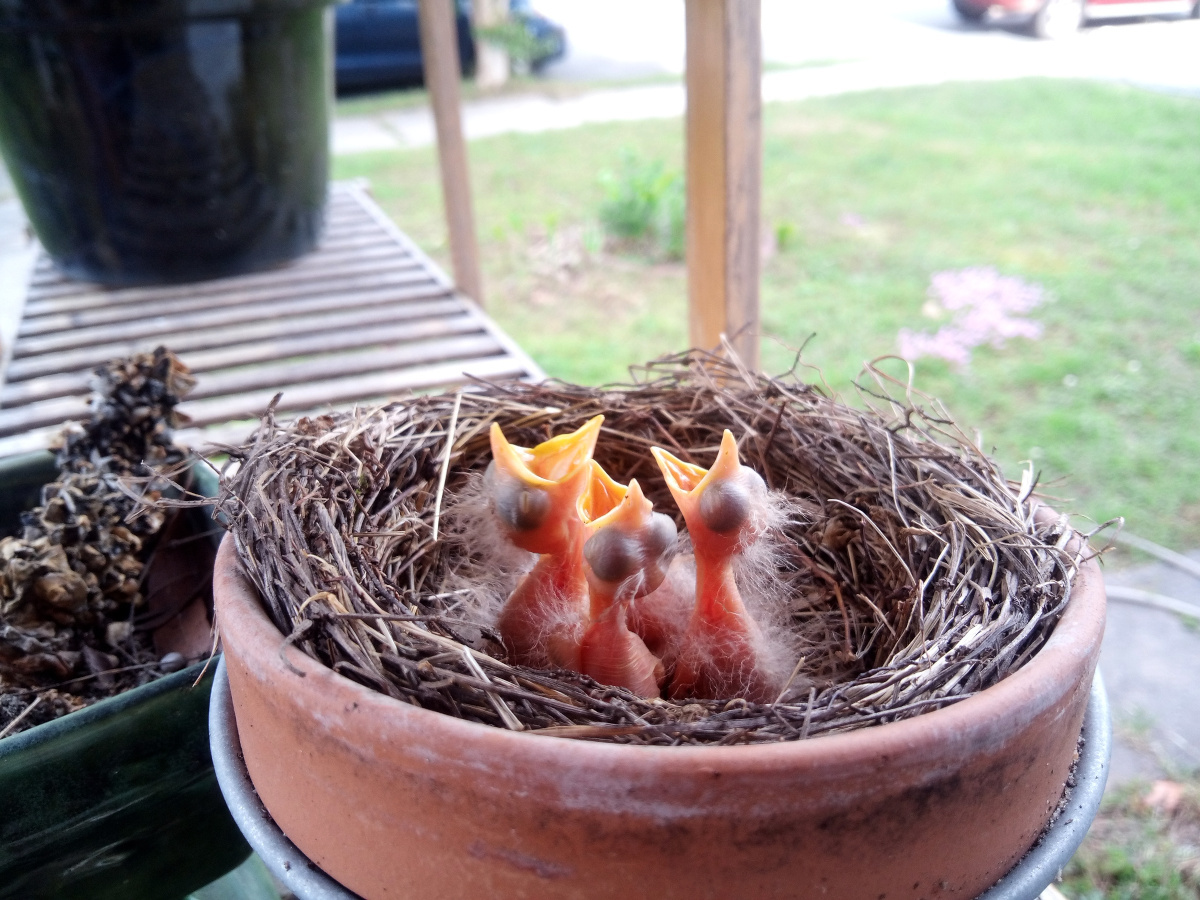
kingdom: Animalia
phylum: Chordata
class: Aves
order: Passeriformes
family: Turdidae
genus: Turdus
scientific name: Turdus migratorius
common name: American robin
